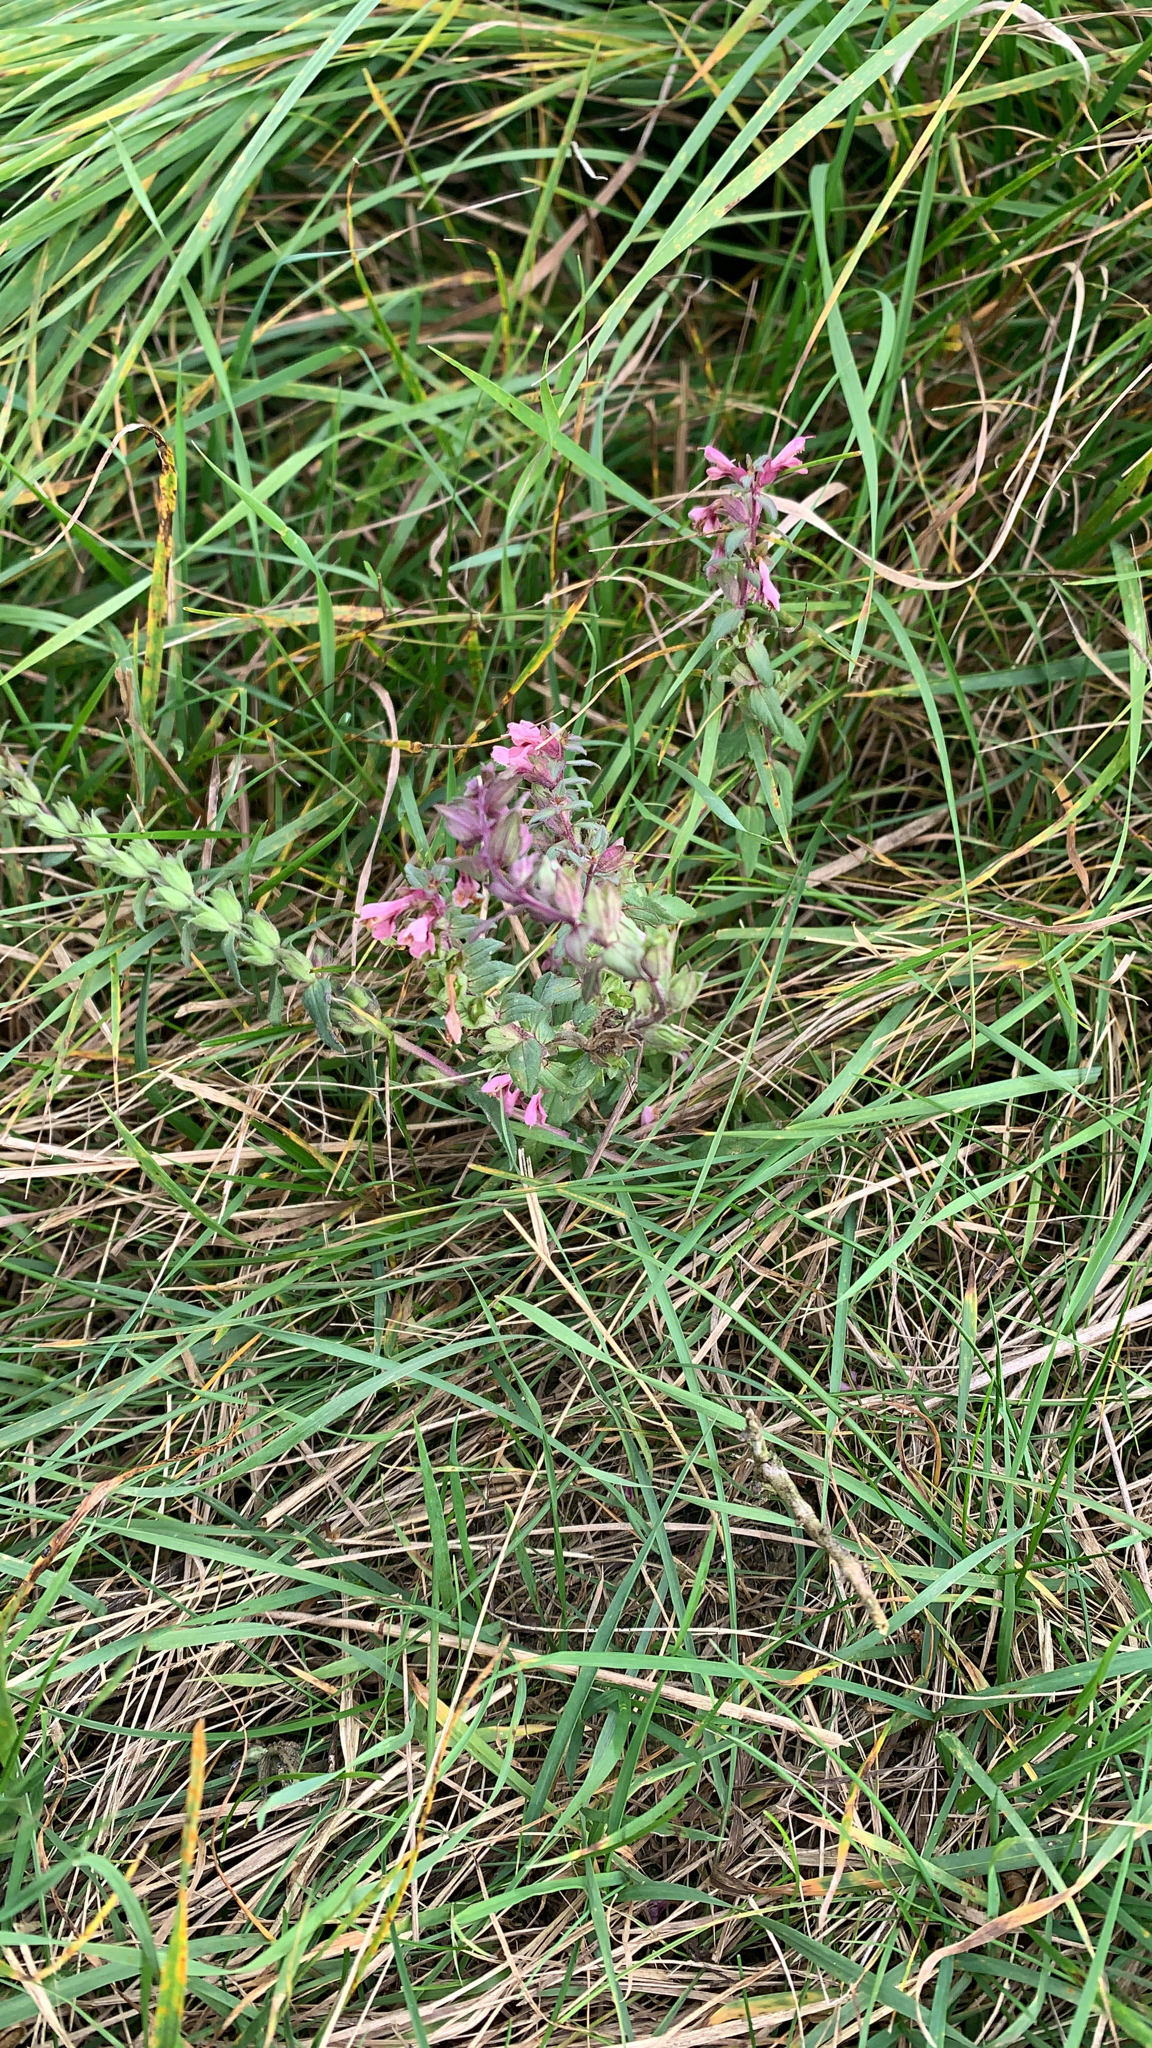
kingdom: Plantae
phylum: Tracheophyta
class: Magnoliopsida
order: Lamiales
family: Orobanchaceae
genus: Odontites
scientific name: Odontites vulgaris
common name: Broomrape
